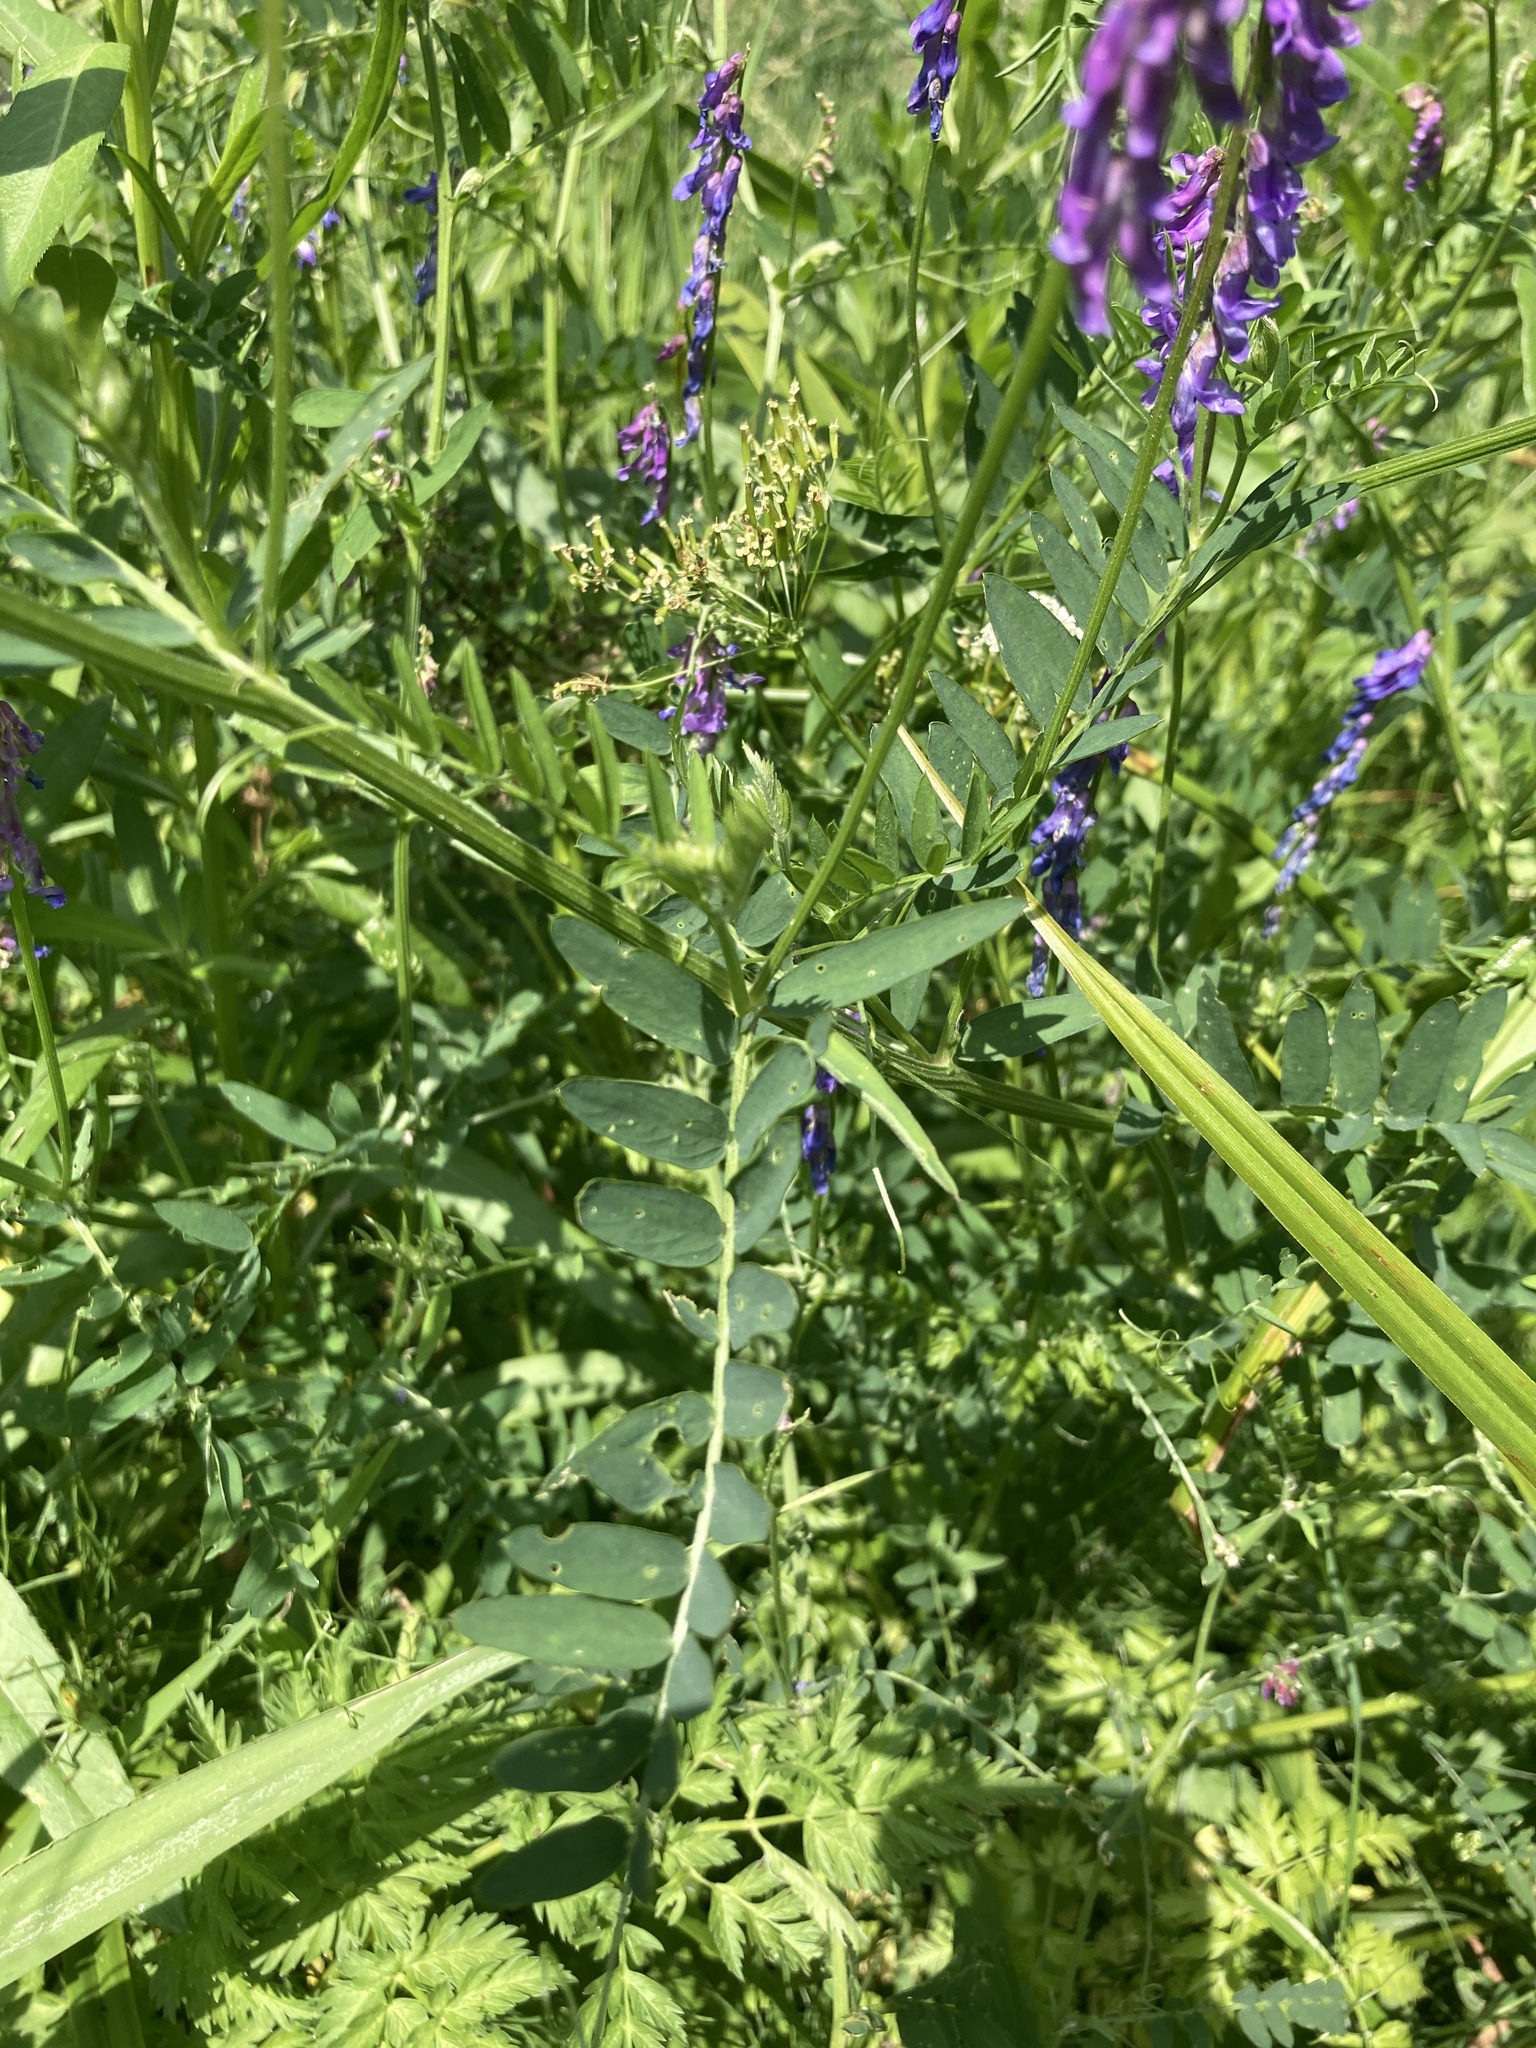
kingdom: Plantae
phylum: Tracheophyta
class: Magnoliopsida
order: Fabales
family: Fabaceae
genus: Vicia
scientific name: Vicia cracca
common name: Bird vetch
